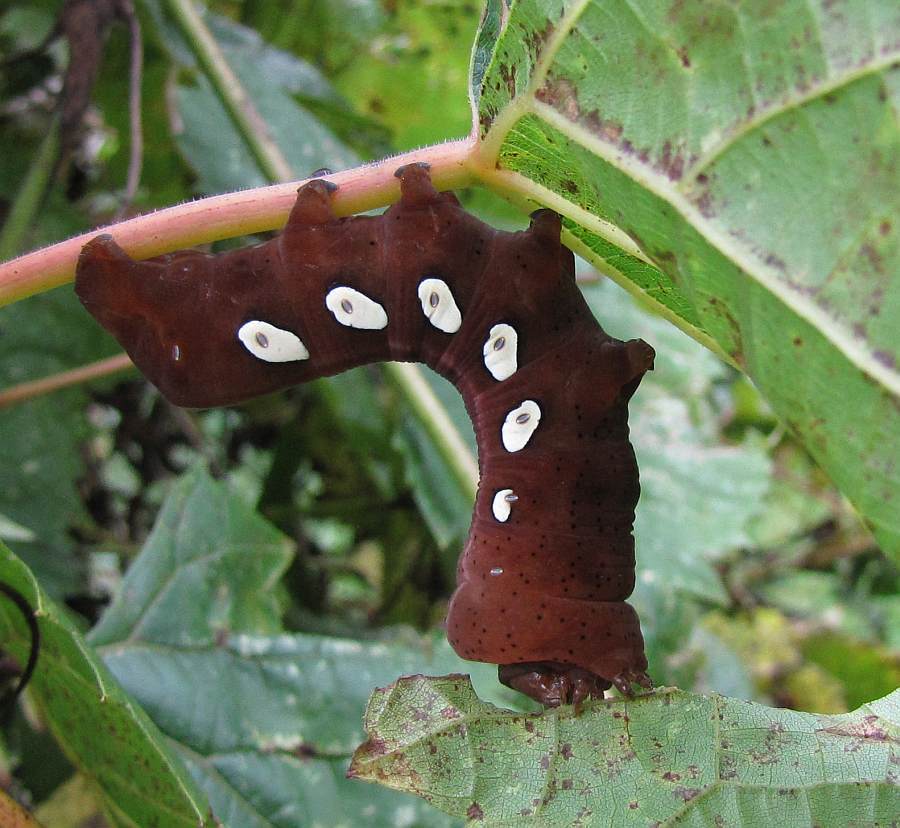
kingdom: Animalia
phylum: Arthropoda
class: Insecta
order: Lepidoptera
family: Sphingidae
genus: Eumorpha
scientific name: Eumorpha pandorus
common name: Pandora sphinx
